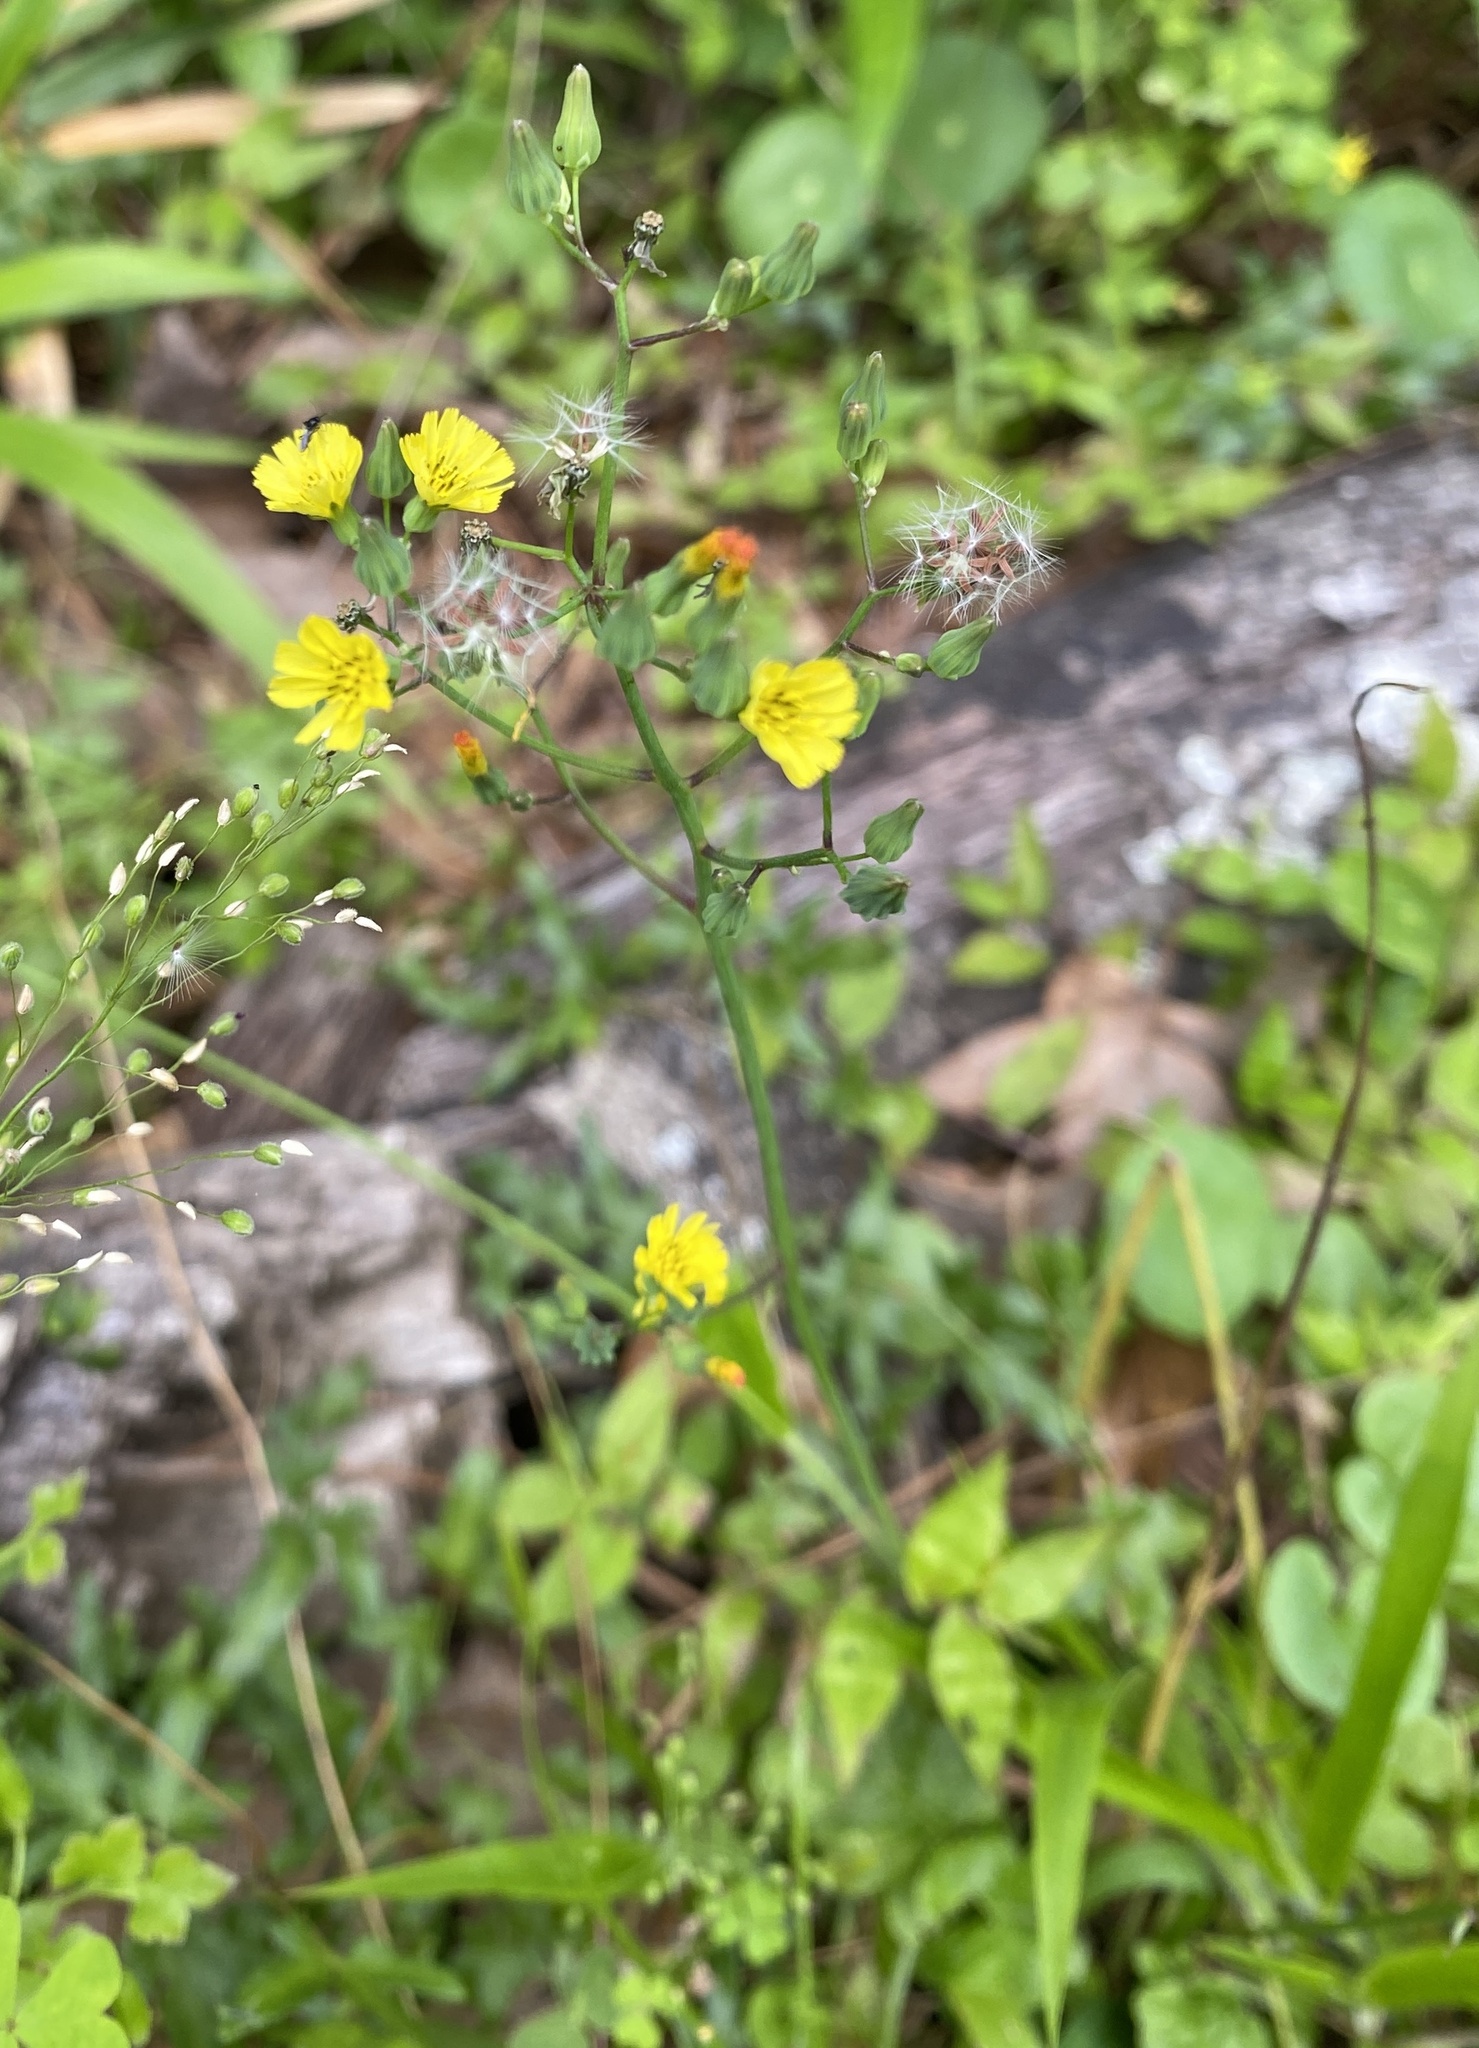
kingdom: Plantae
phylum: Tracheophyta
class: Magnoliopsida
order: Asterales
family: Asteraceae
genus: Youngia
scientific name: Youngia japonica
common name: Oriental false hawksbeard
